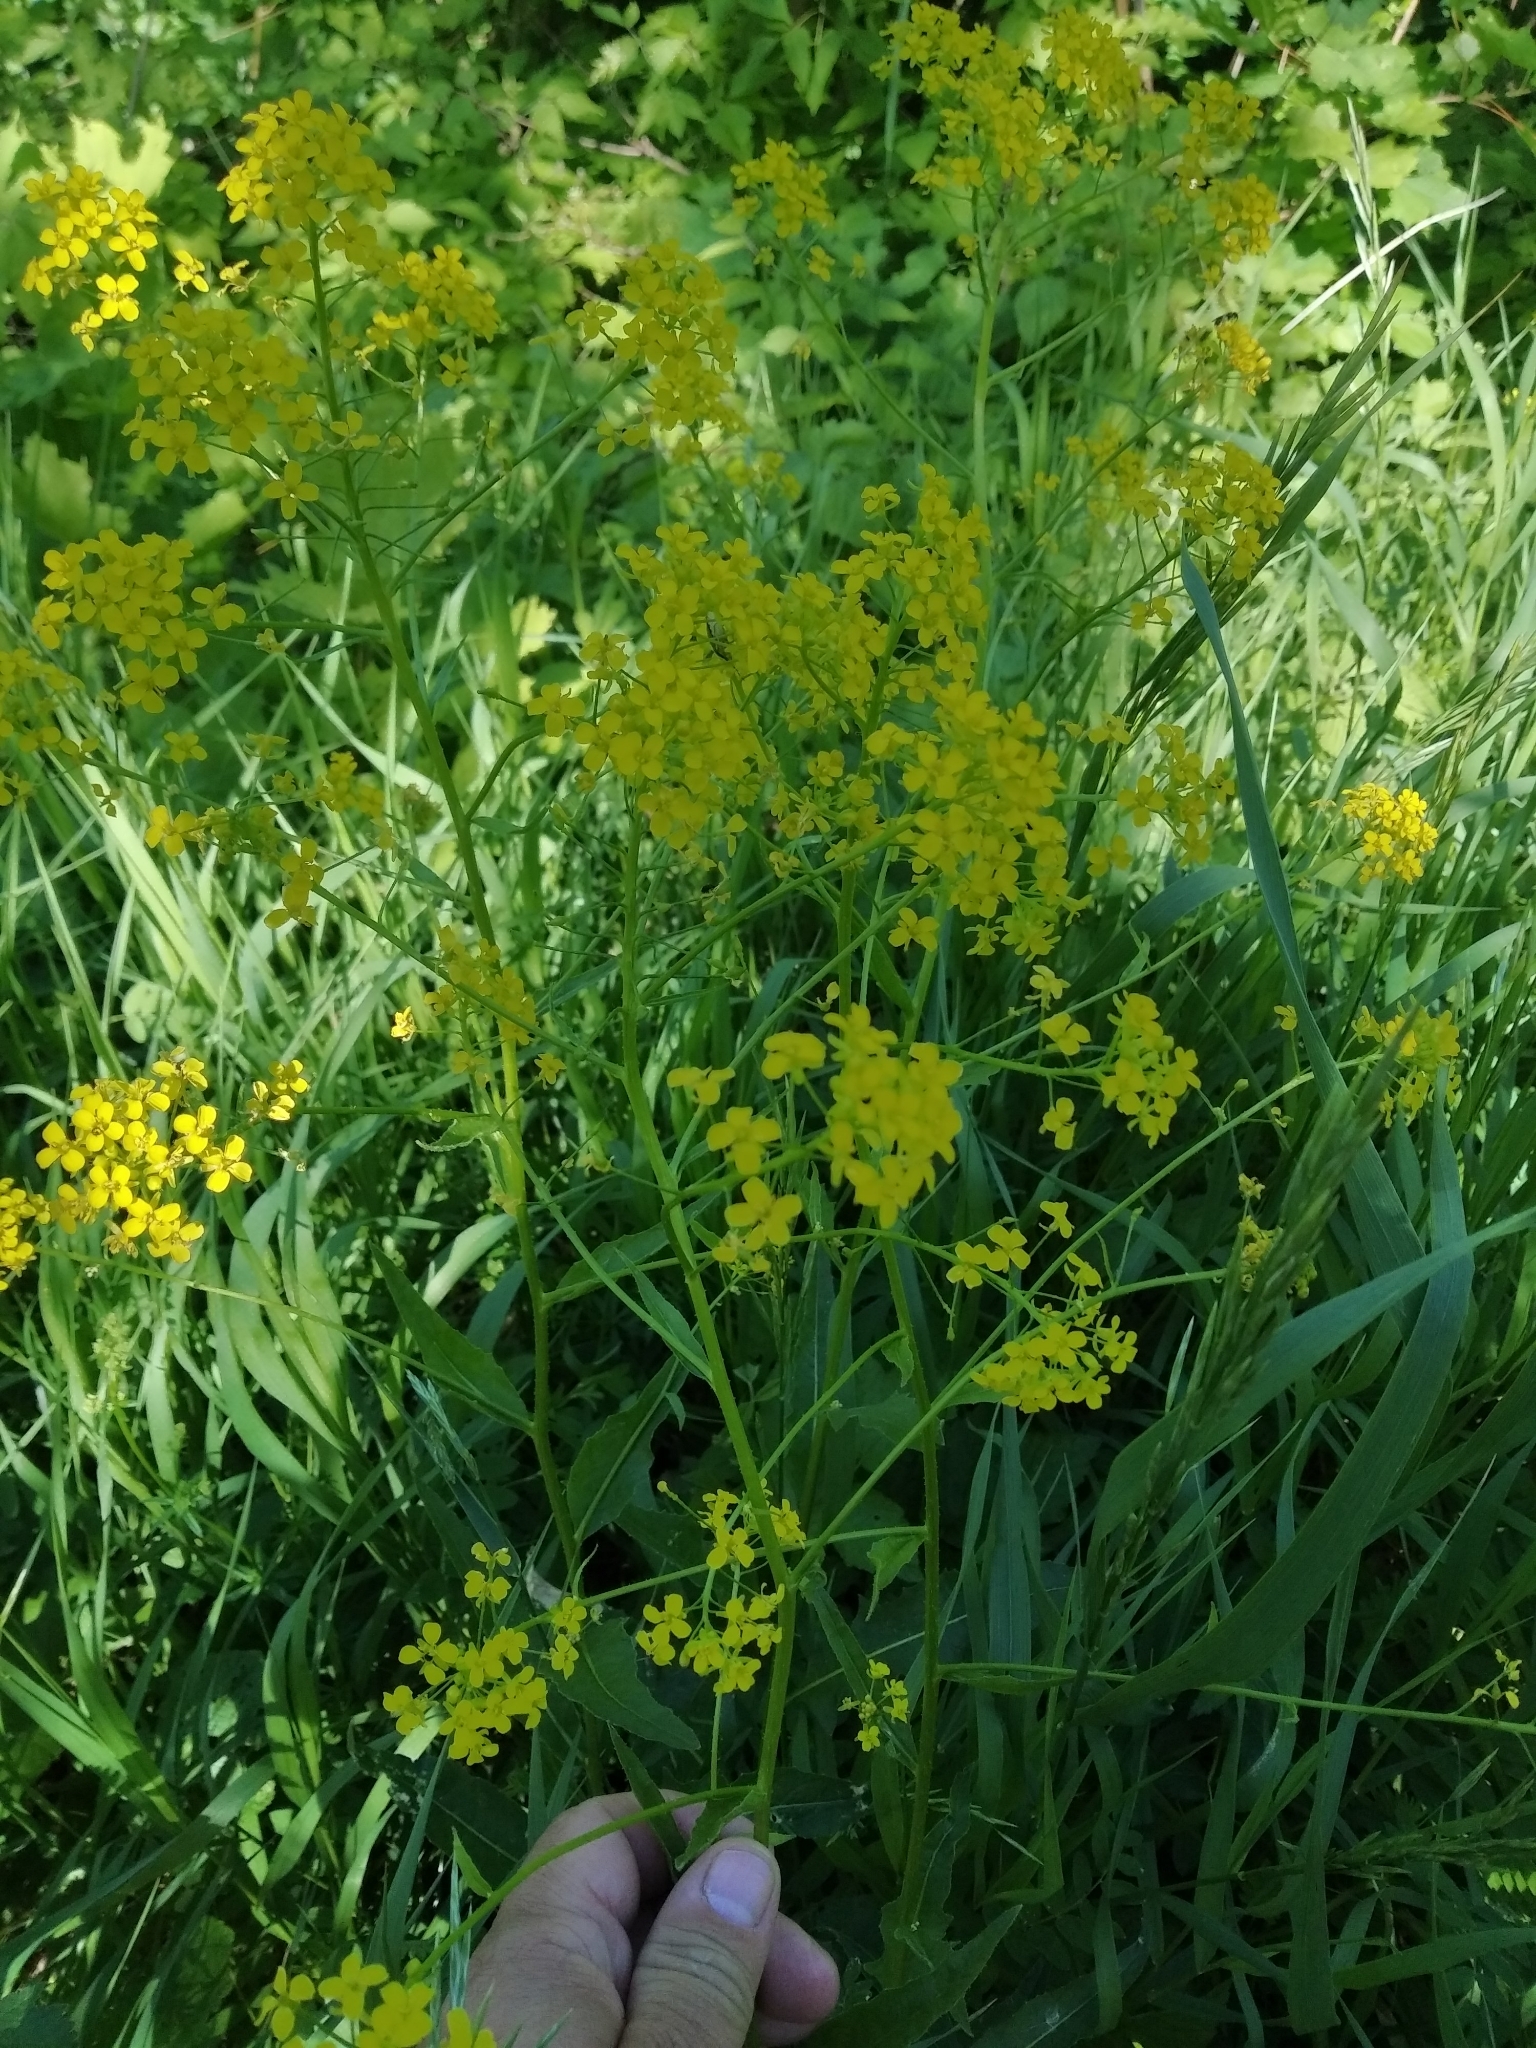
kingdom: Plantae
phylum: Tracheophyta
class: Magnoliopsida
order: Brassicales
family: Brassicaceae
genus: Bunias
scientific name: Bunias orientalis
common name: Warty-cabbage
